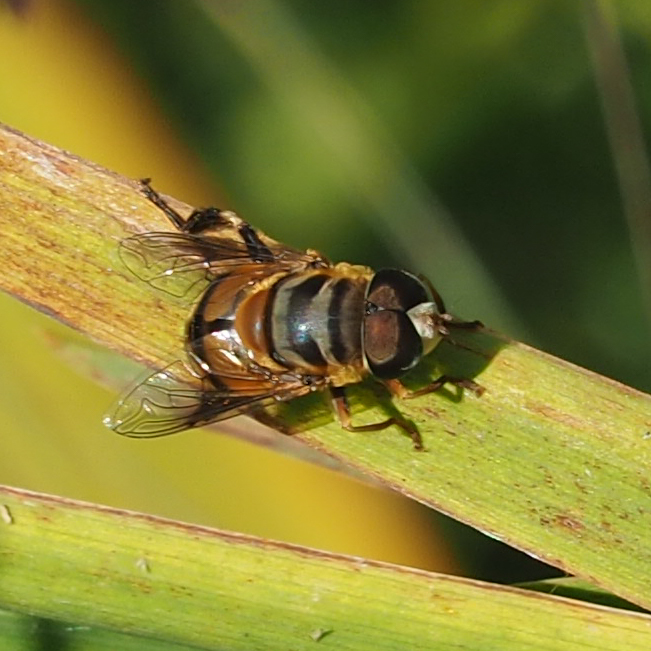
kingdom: Animalia
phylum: Arthropoda
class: Insecta
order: Diptera
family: Syrphidae
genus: Palpada
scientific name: Palpada vinetorum
